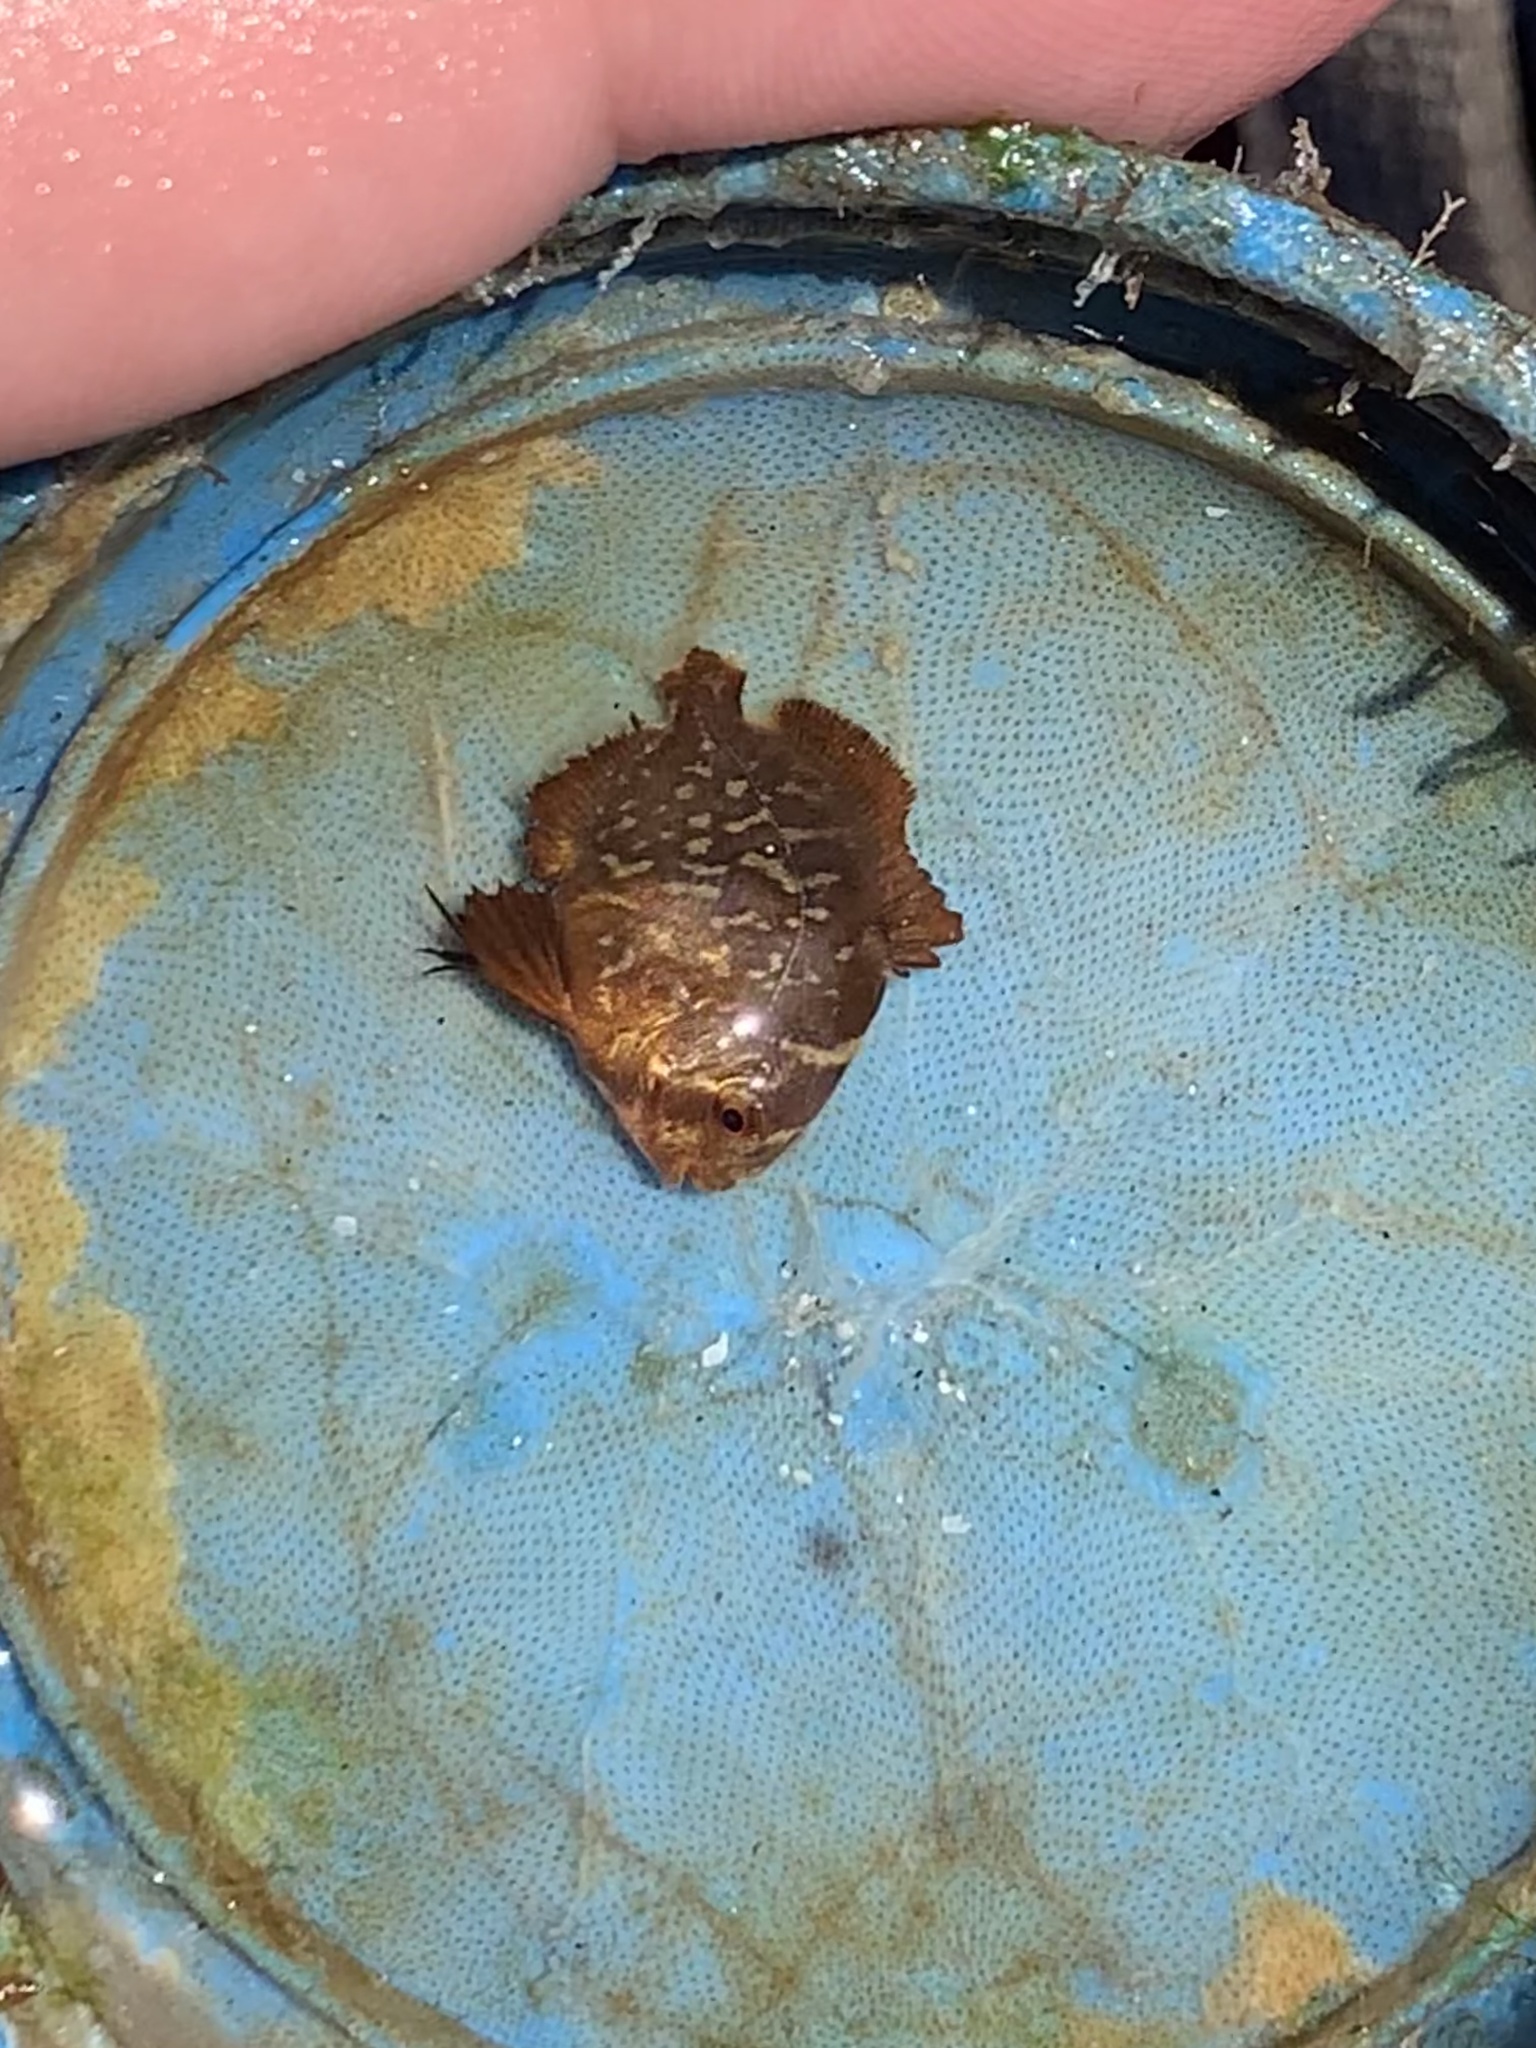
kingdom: Animalia
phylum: Chordata
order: Perciformes
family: Ephippidae
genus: Chaetodipterus
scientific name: Chaetodipterus faber
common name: Ocean cobbler
